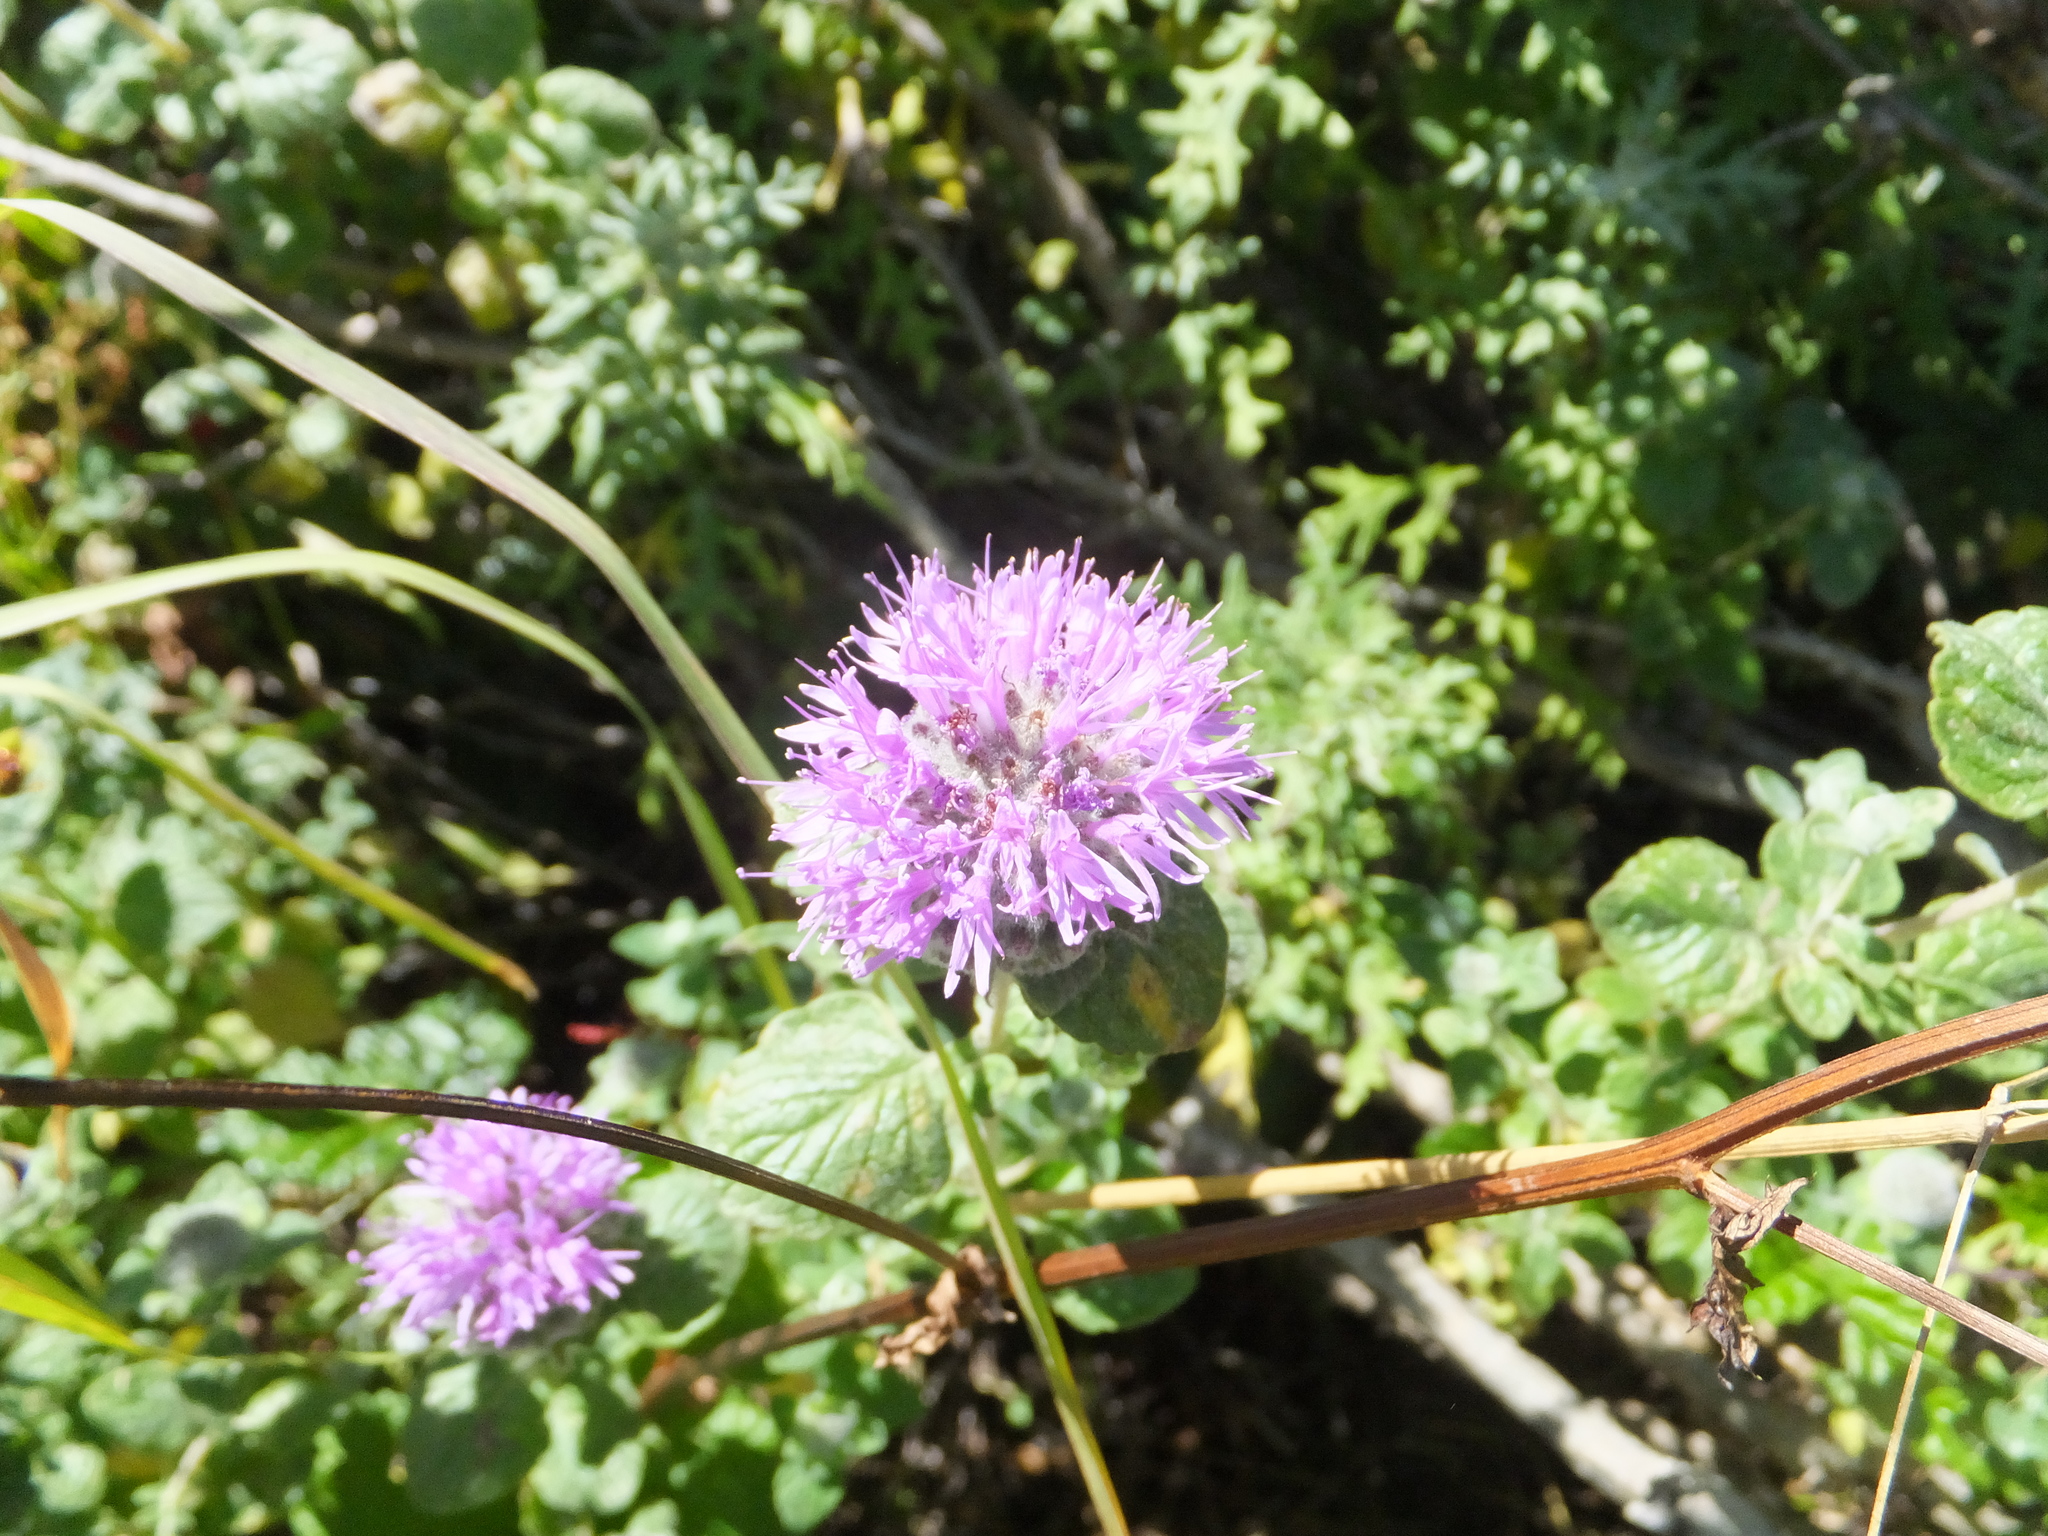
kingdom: Plantae
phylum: Tracheophyta
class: Magnoliopsida
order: Lamiales
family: Lamiaceae
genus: Monardella
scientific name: Monardella odoratissima
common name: Pacific monardella
